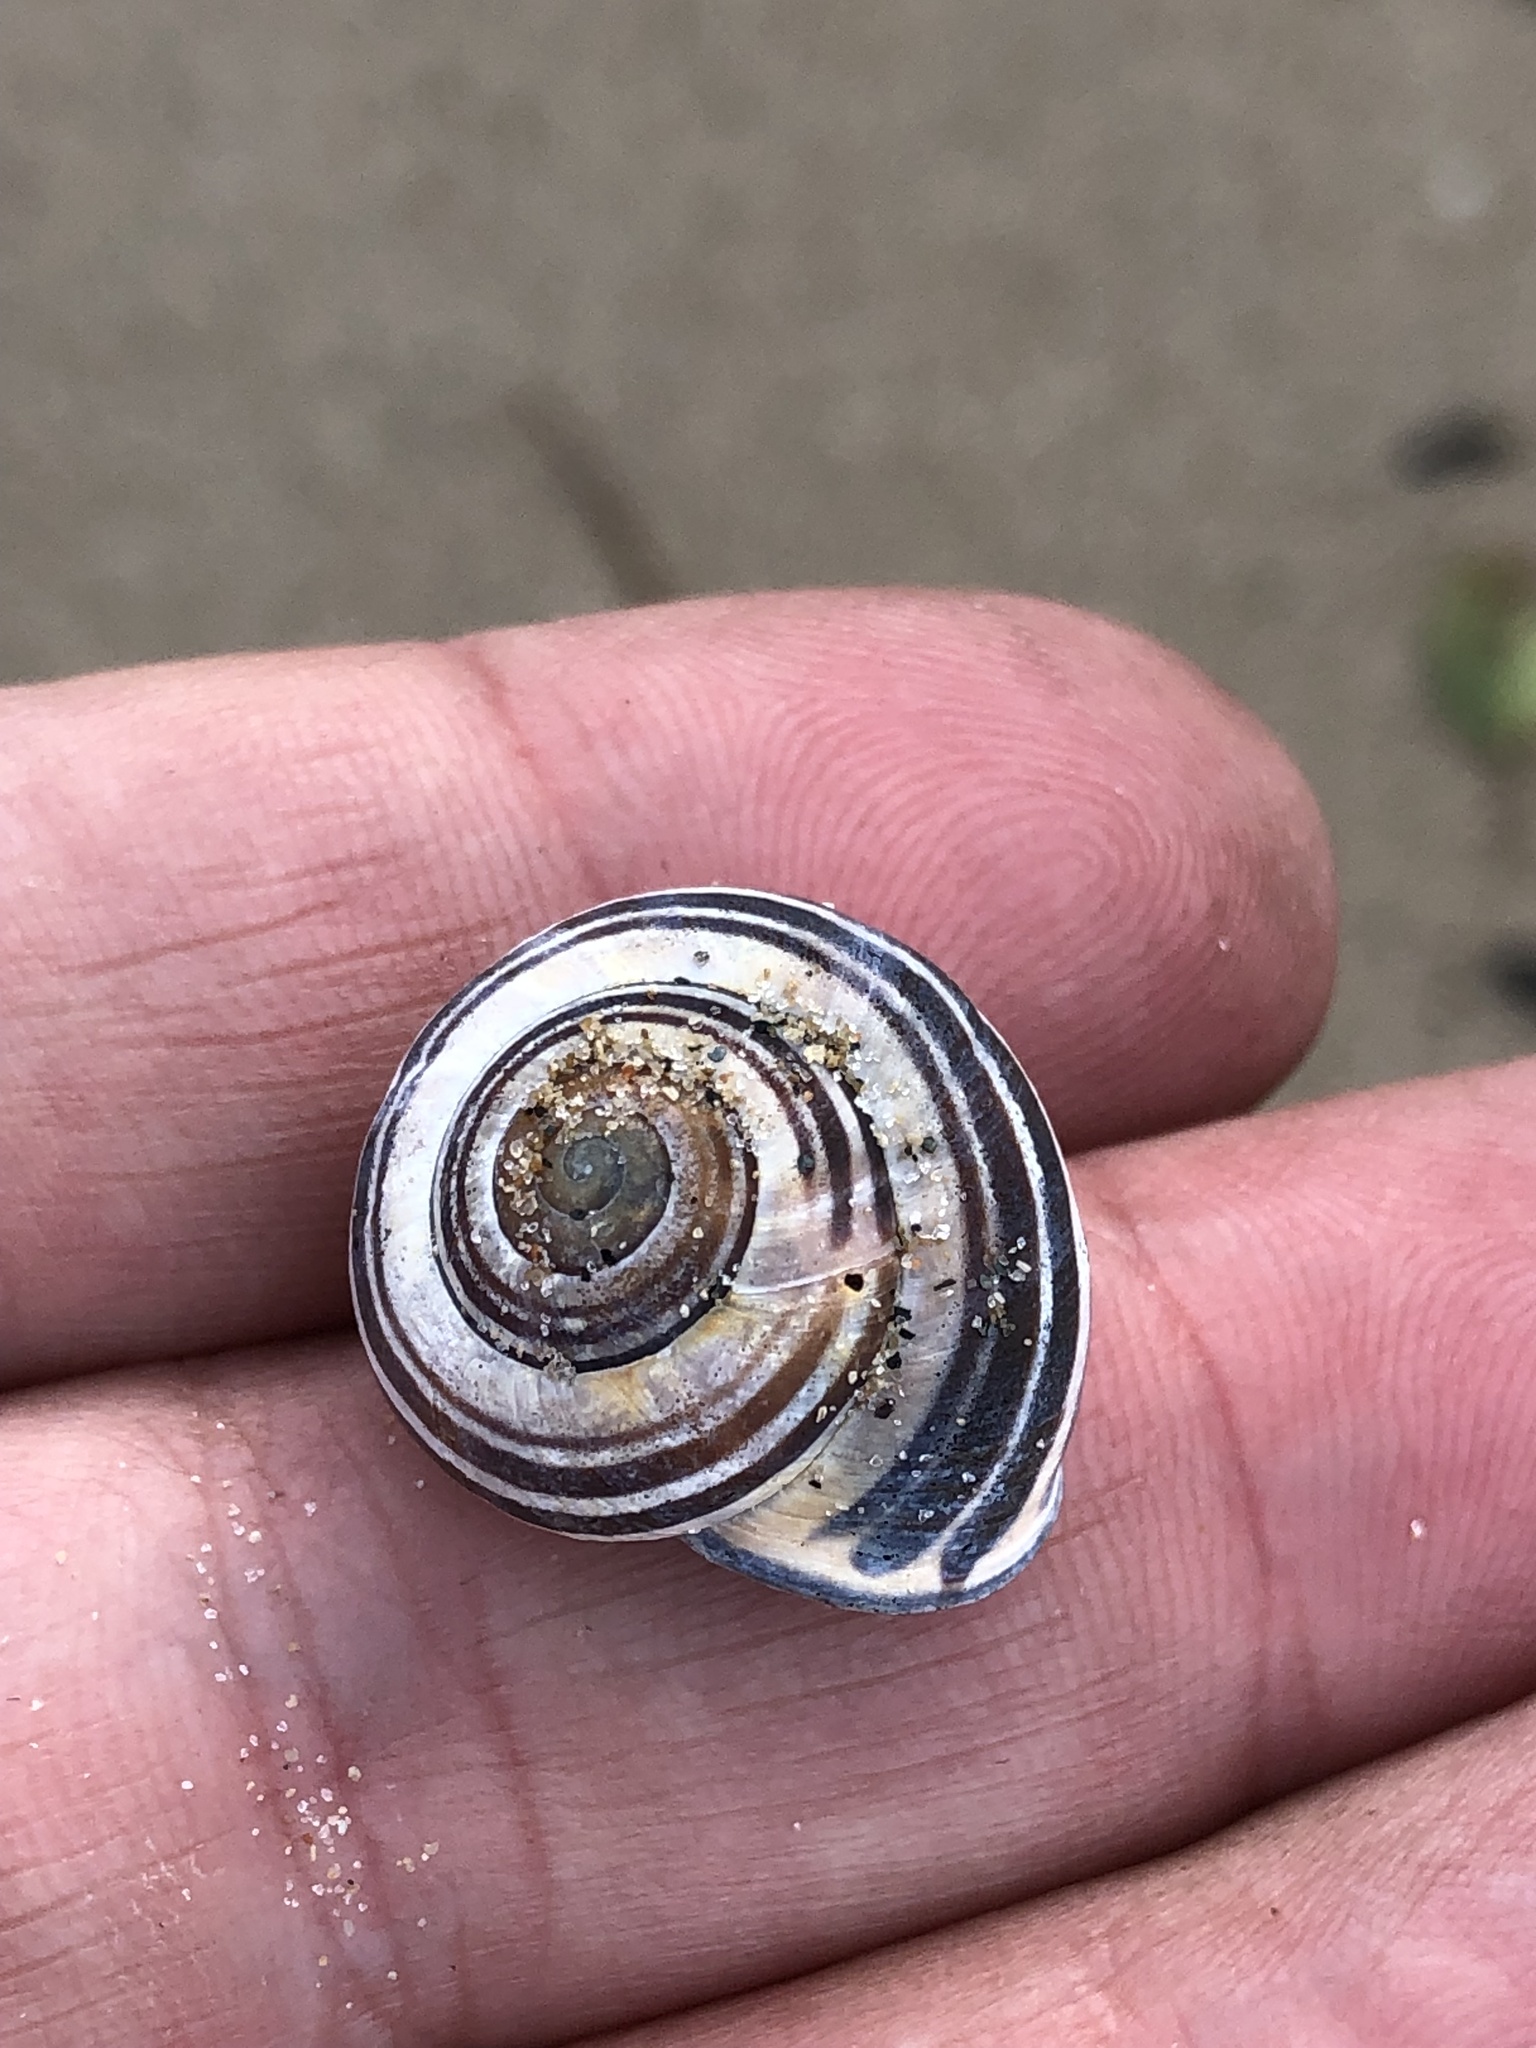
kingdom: Animalia
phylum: Mollusca
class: Gastropoda
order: Stylommatophora
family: Helicidae
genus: Cepaea
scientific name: Cepaea nemoralis
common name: Grovesnail
